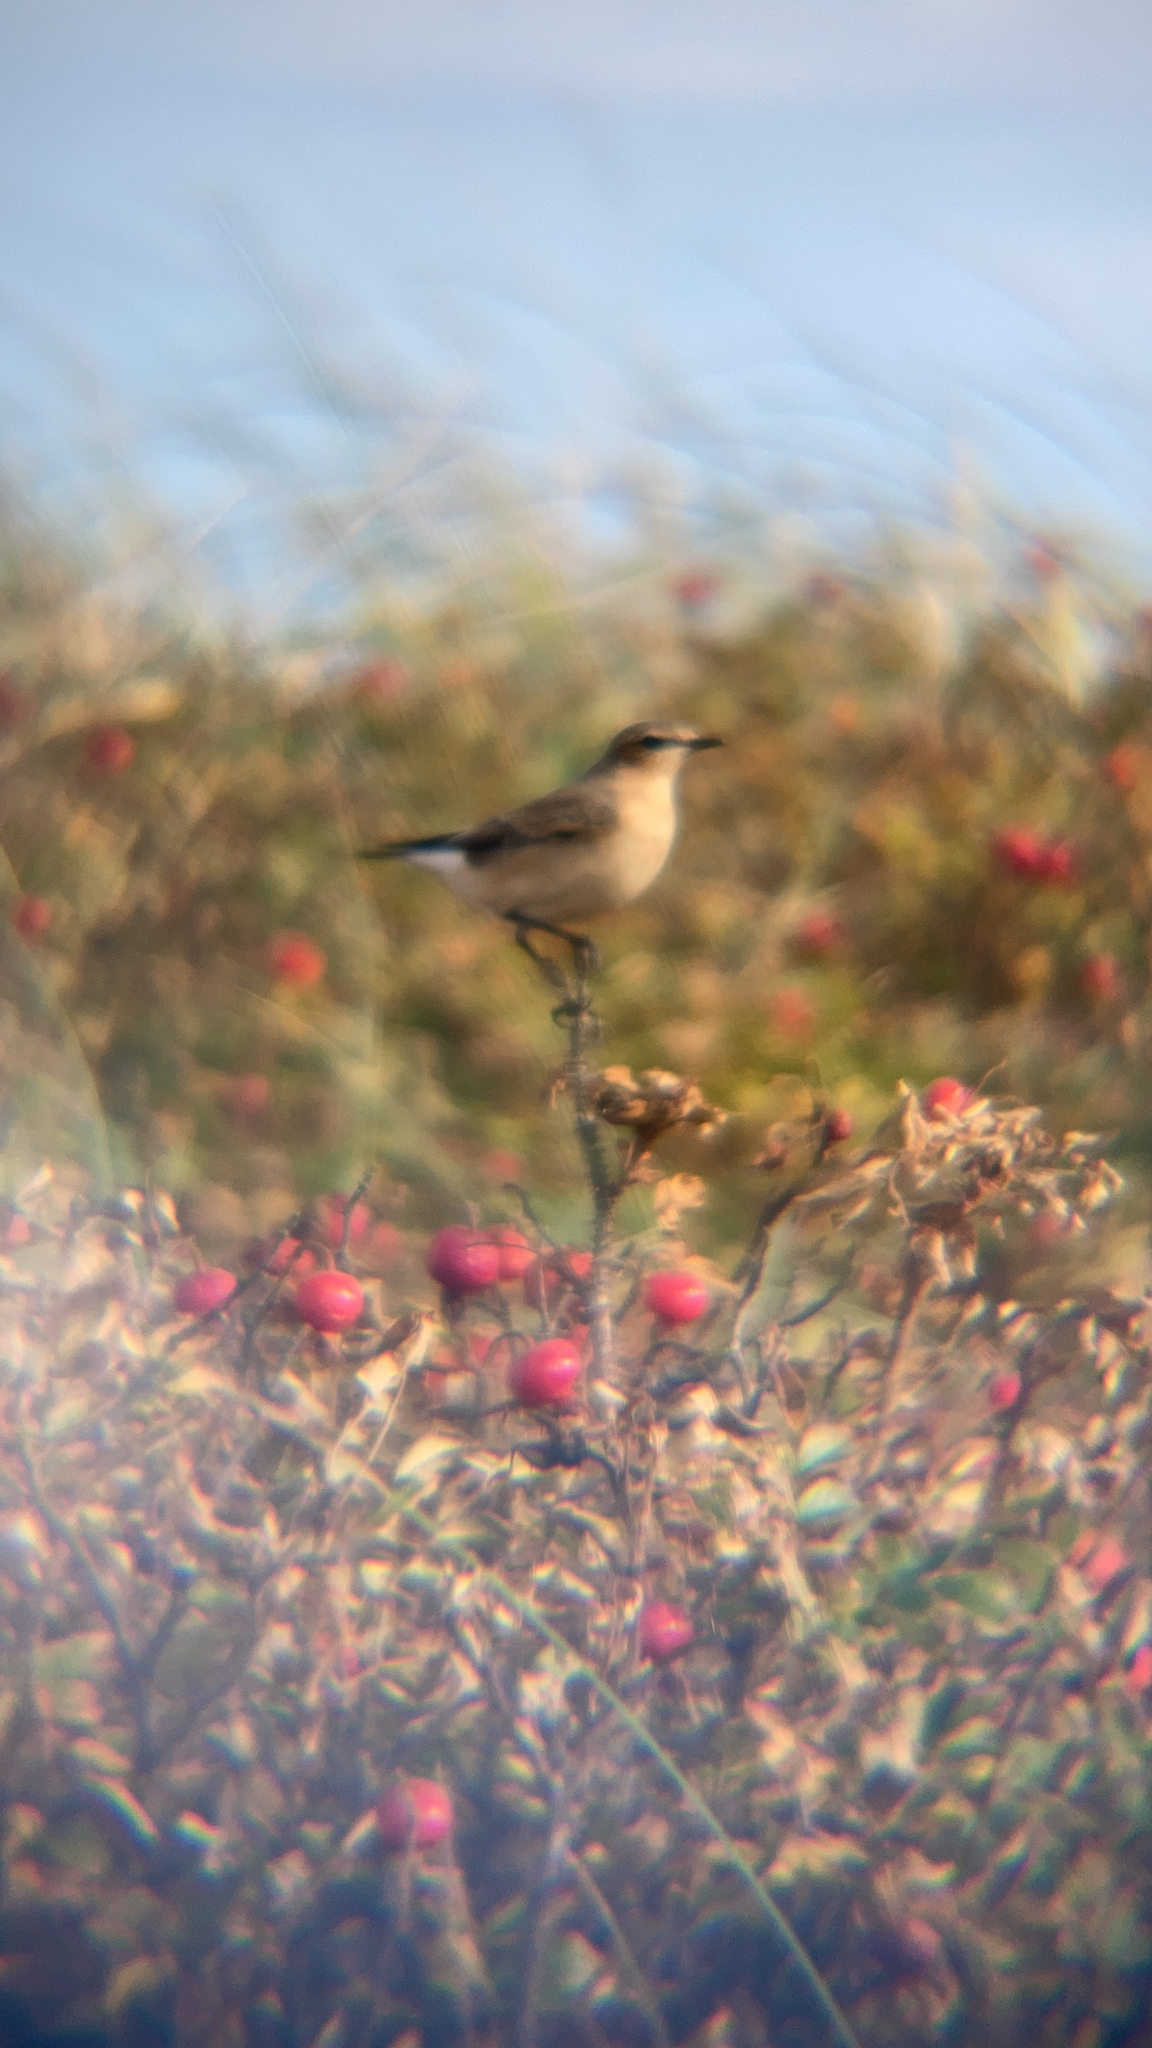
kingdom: Animalia
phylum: Chordata
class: Aves
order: Passeriformes
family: Muscicapidae
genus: Oenanthe
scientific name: Oenanthe oenanthe
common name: Northern wheatear
